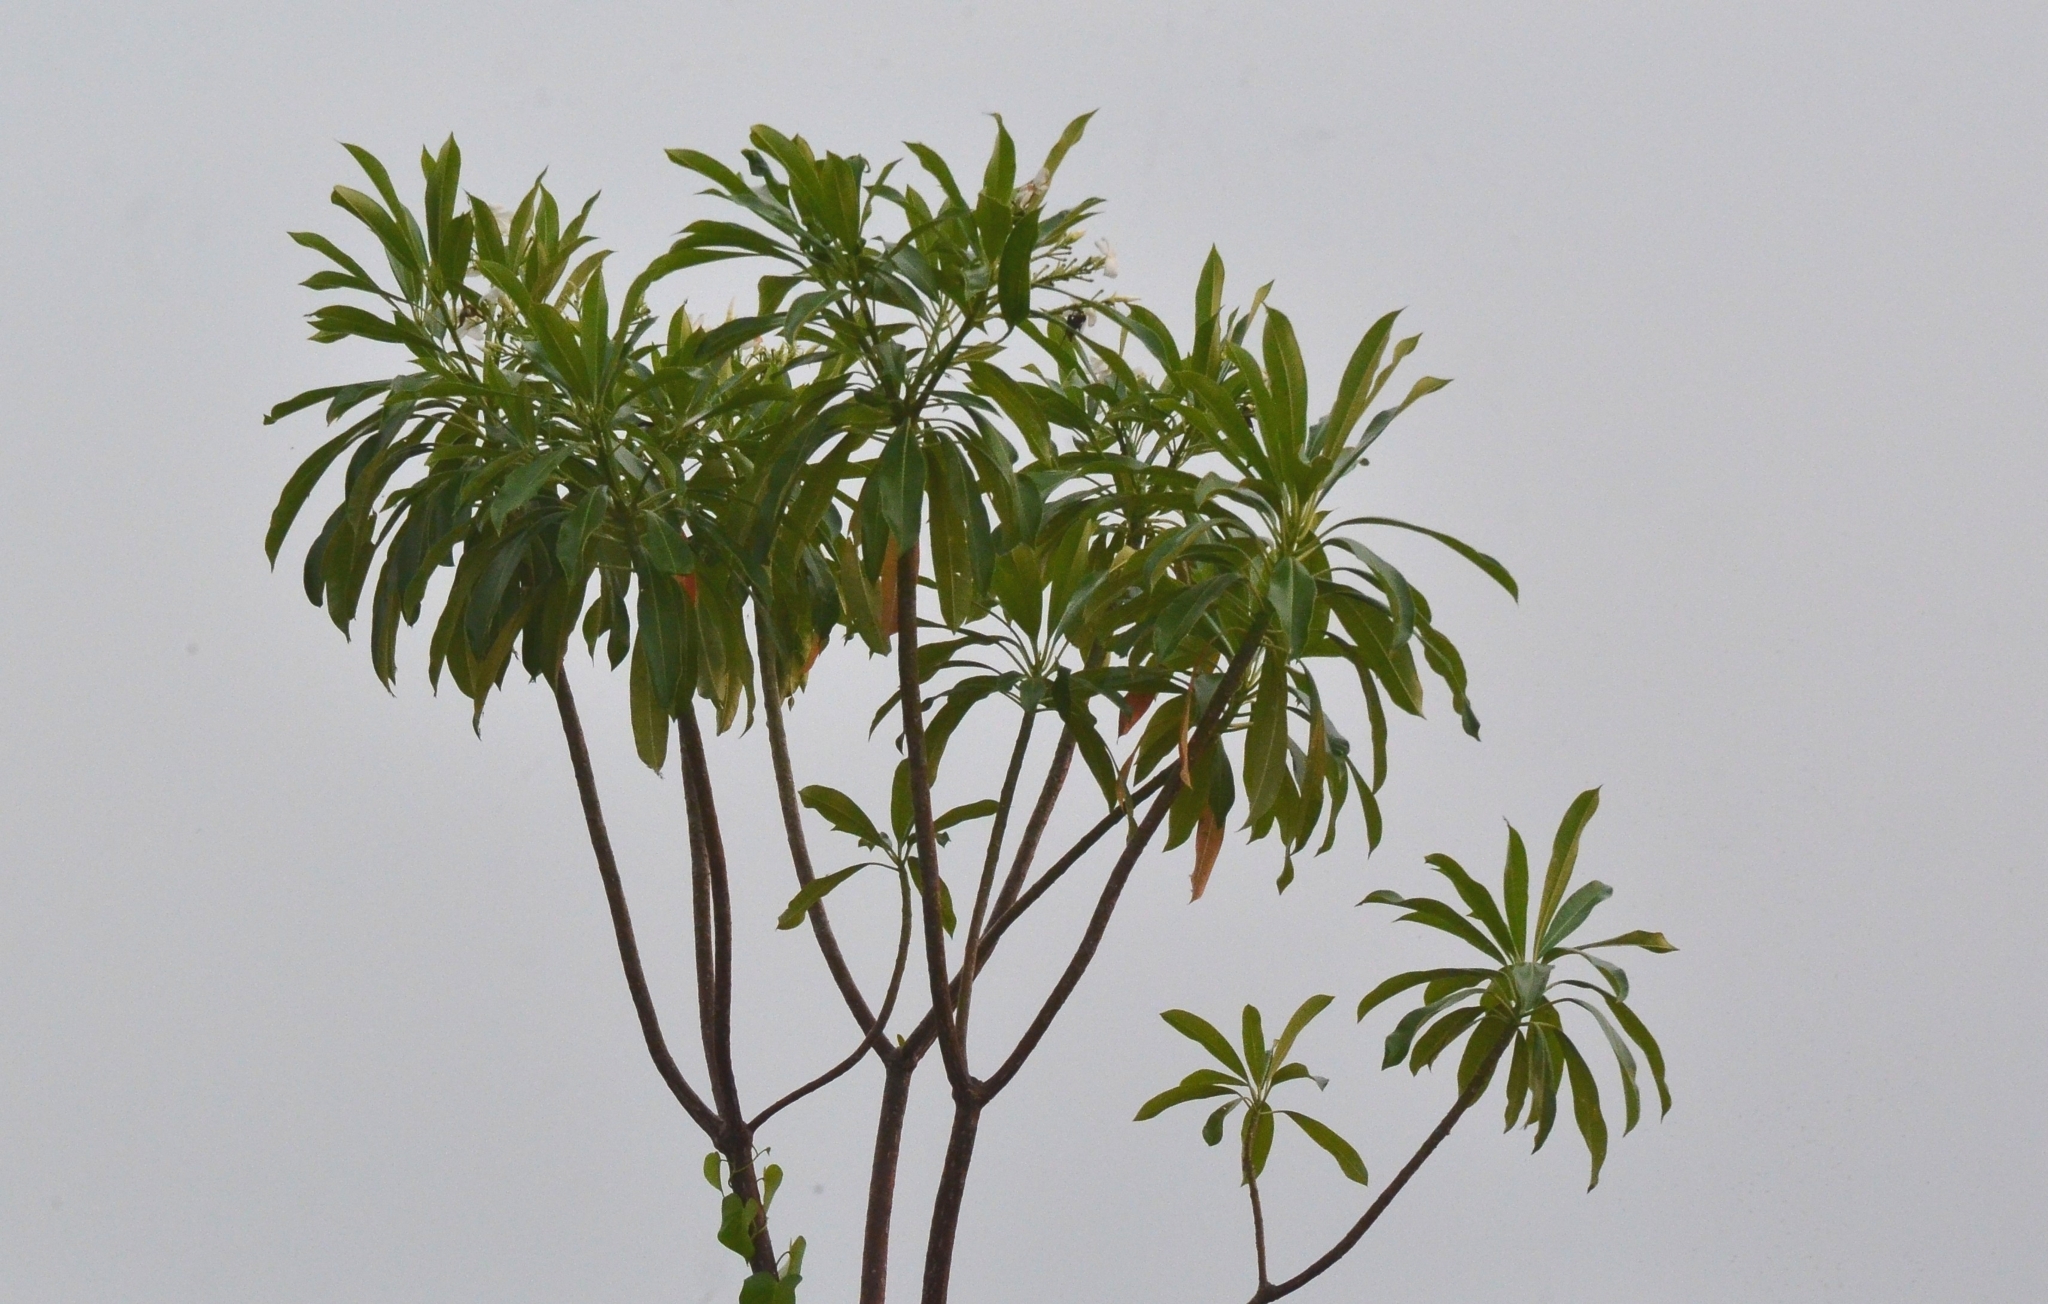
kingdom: Plantae
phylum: Tracheophyta
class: Magnoliopsida
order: Gentianales
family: Apocynaceae
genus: Cerbera
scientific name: Cerbera odollam
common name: Pong-pong
